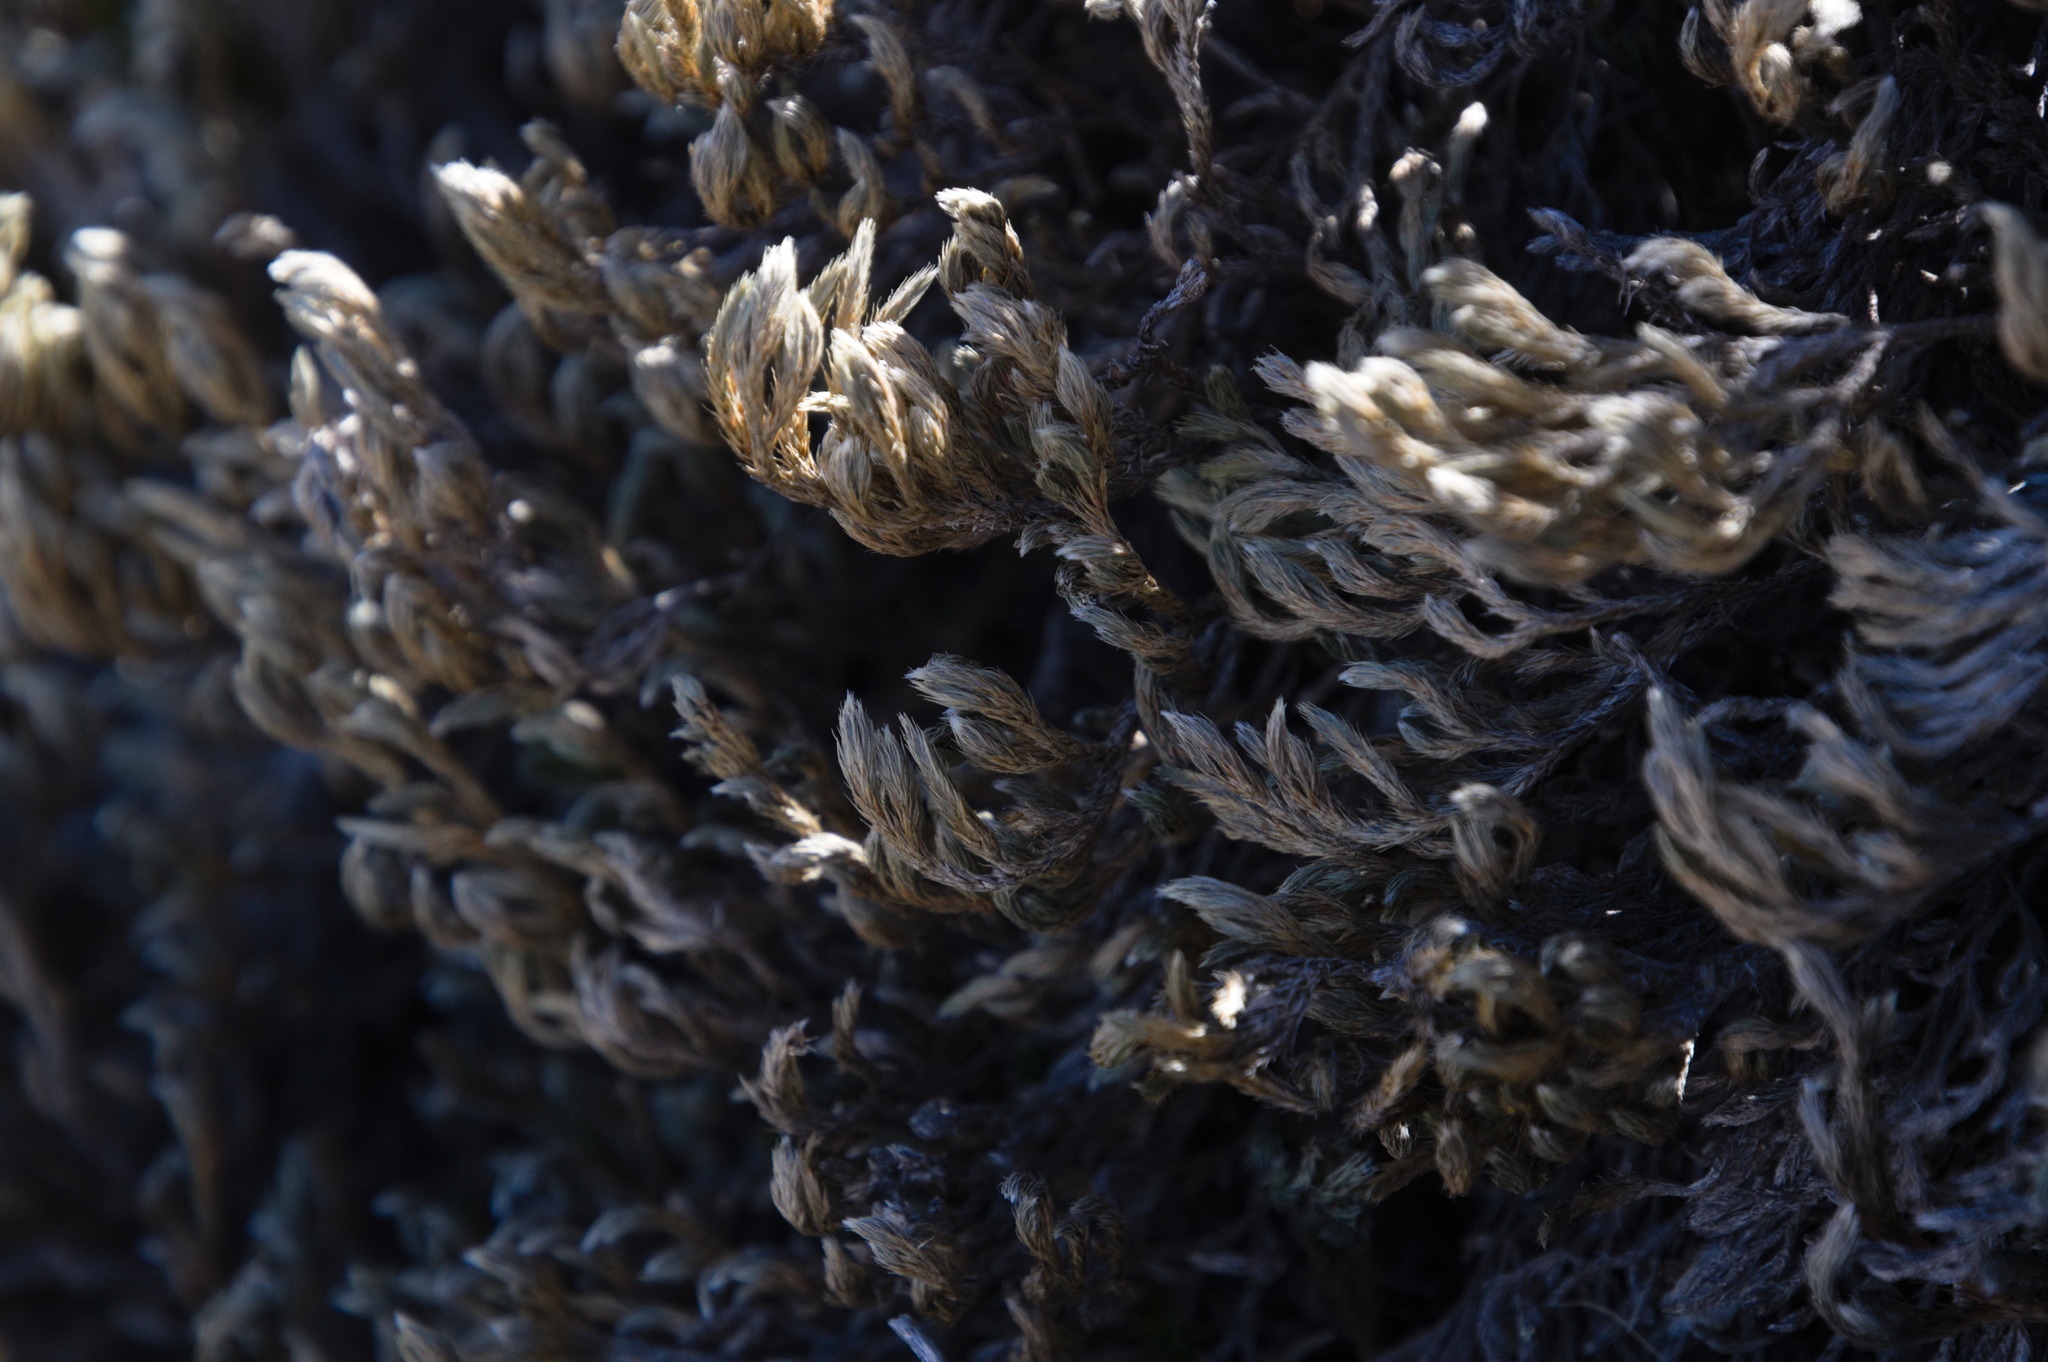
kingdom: Plantae
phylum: Tracheophyta
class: Lycopodiopsida
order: Selaginellales
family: Selaginellaceae
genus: Selaginella
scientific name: Selaginella rupincola
